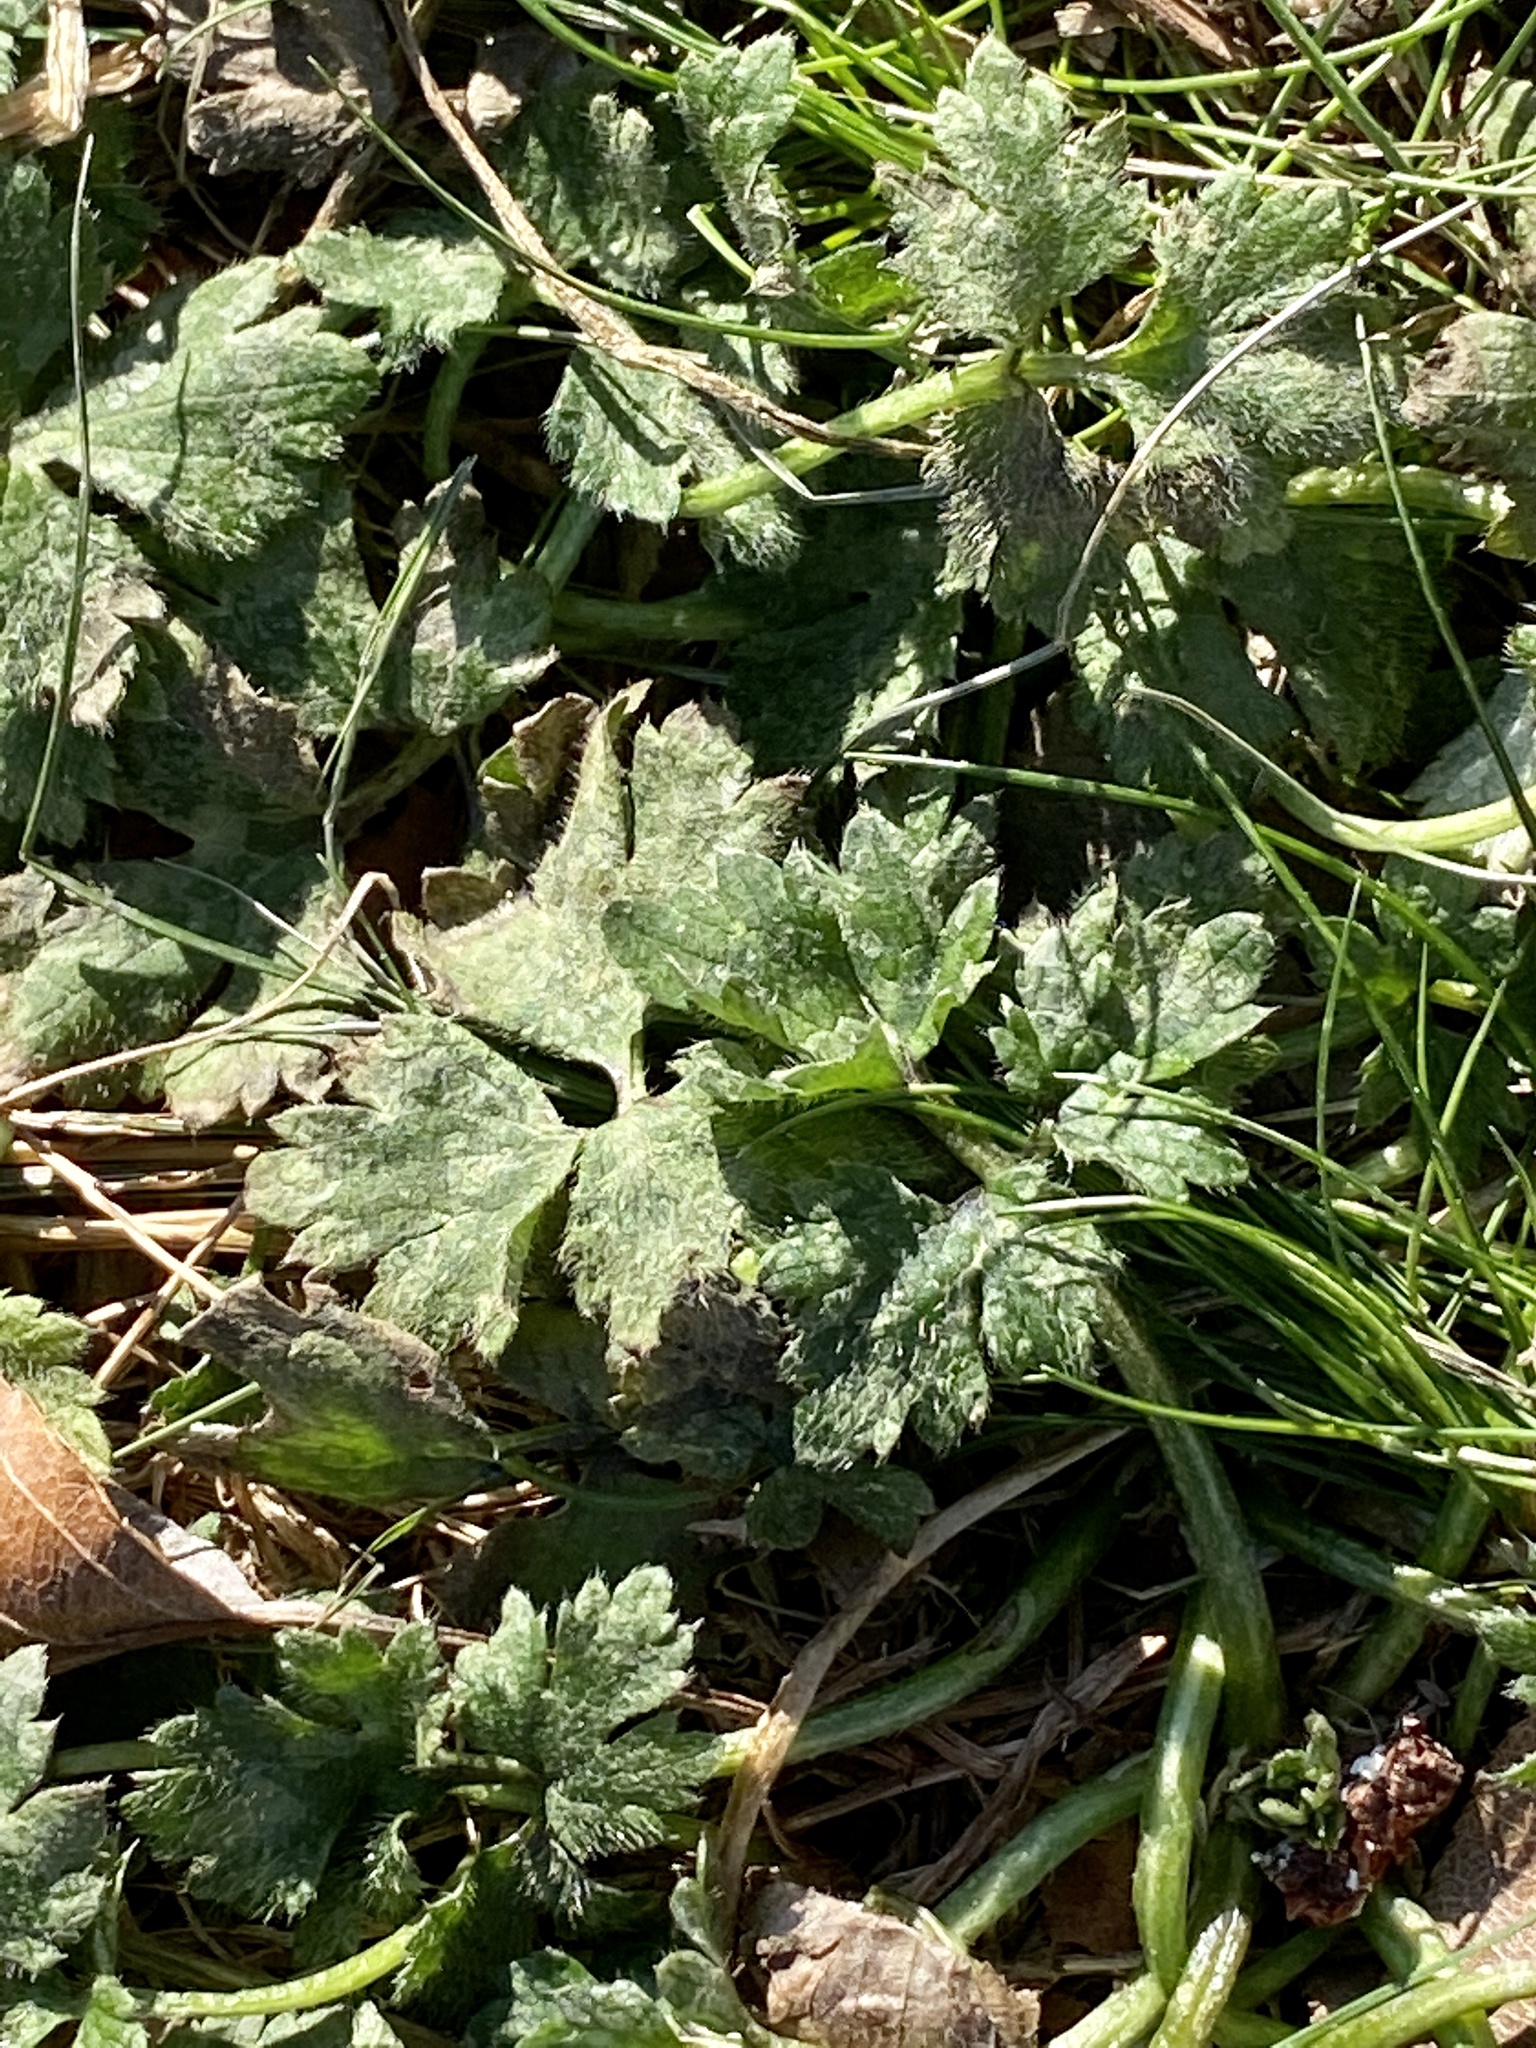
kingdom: Plantae
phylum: Tracheophyta
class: Magnoliopsida
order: Ranunculales
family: Ranunculaceae
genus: Ranunculus
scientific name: Ranunculus repens
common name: Creeping buttercup
